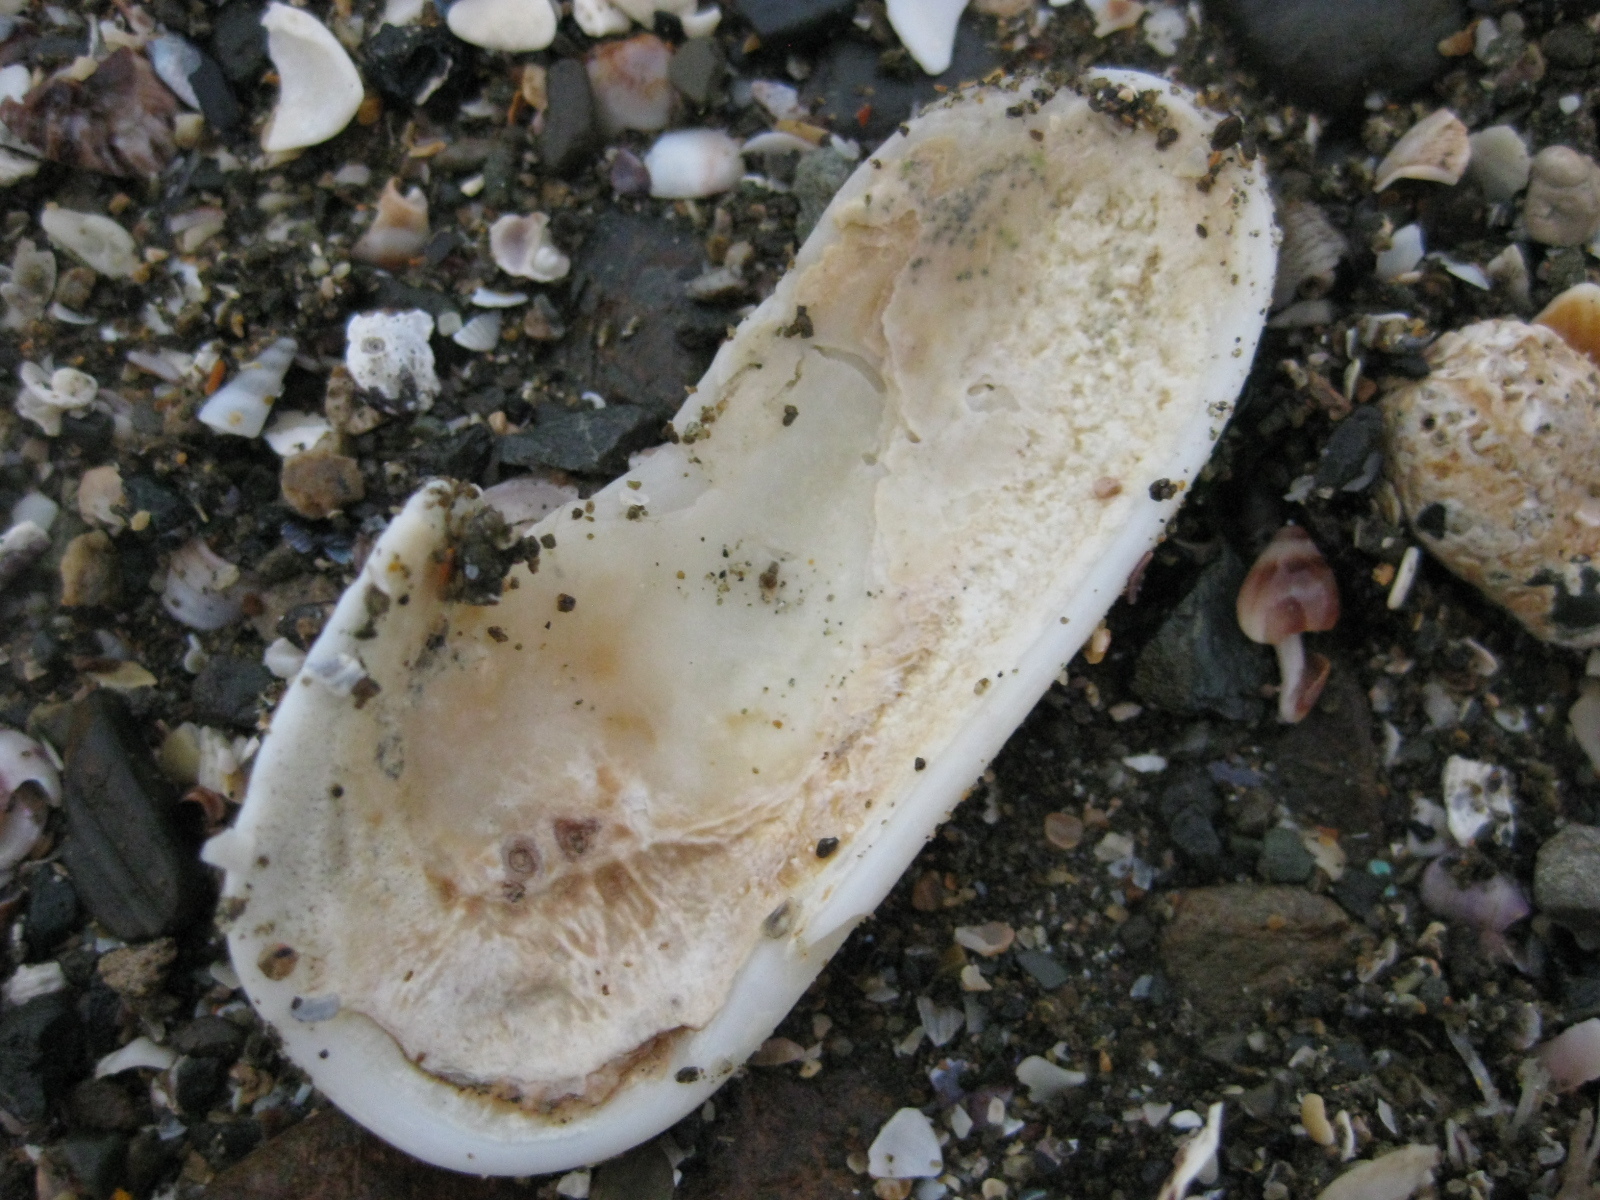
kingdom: Animalia
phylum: Mollusca
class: Gastropoda
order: Lepetellida
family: Fissurellidae
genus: Scutus
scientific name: Scutus breviculus
